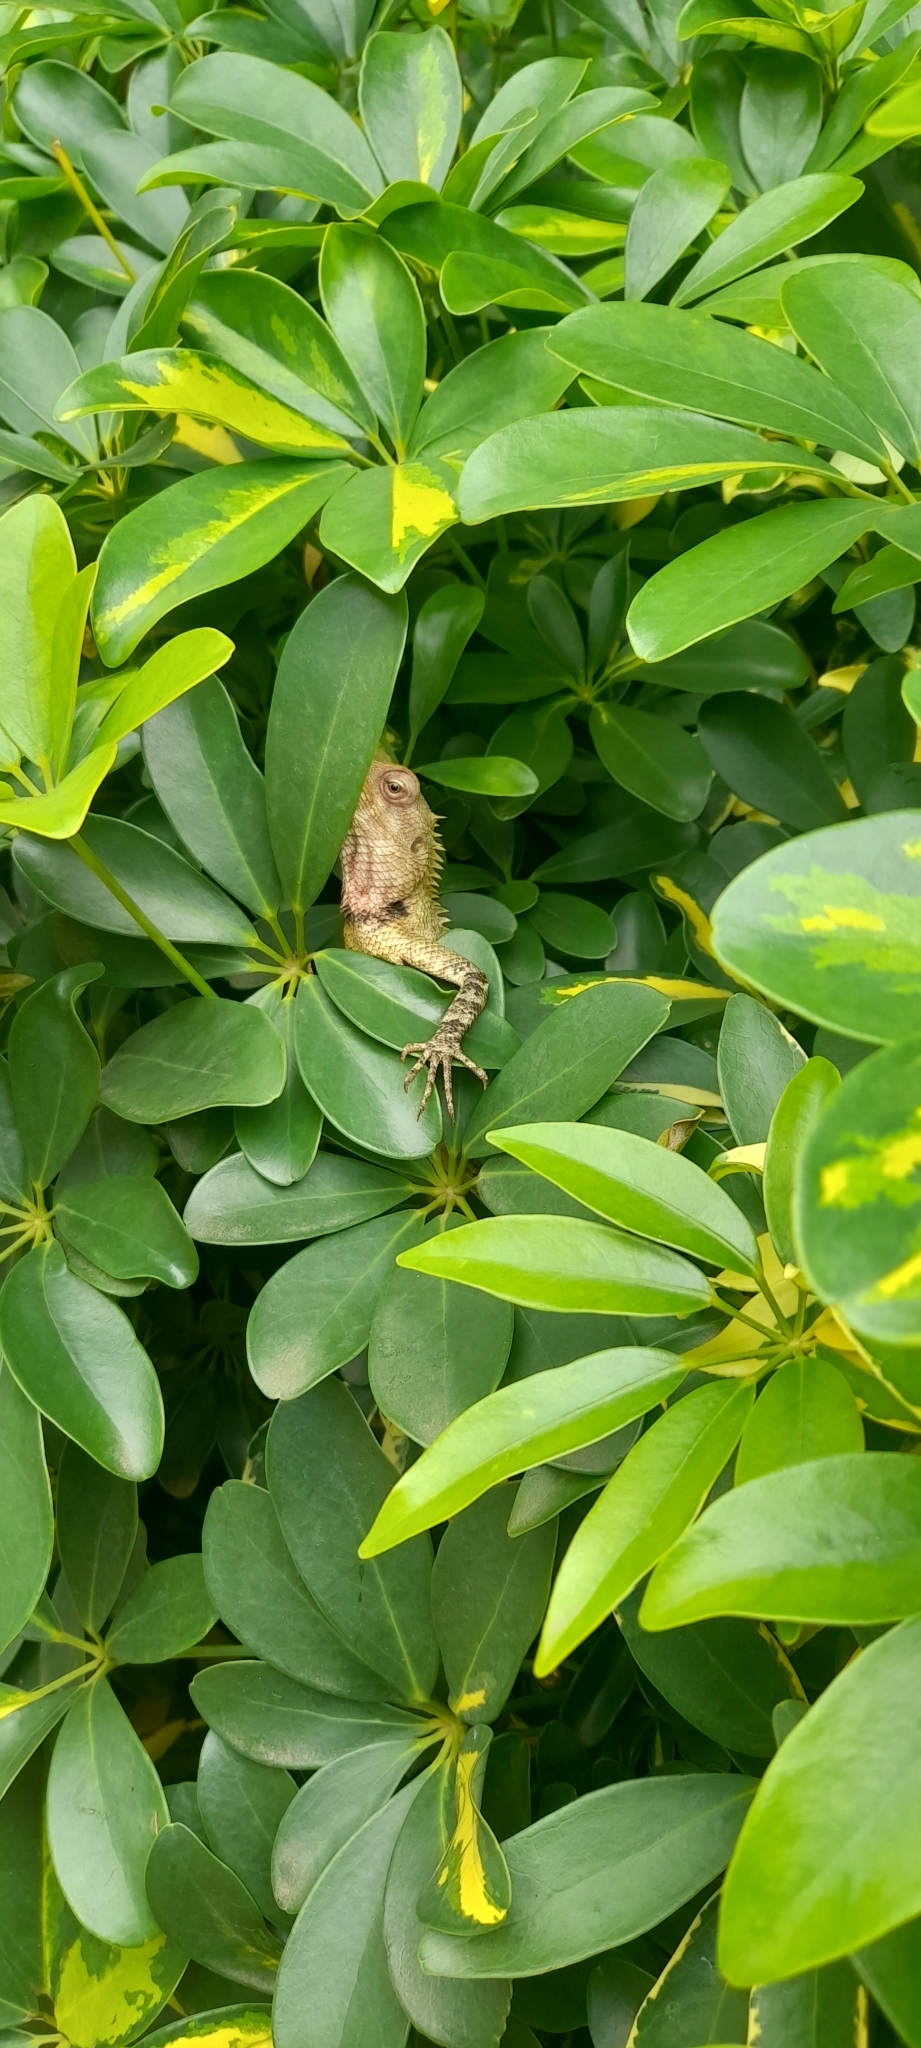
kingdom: Animalia
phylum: Chordata
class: Squamata
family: Agamidae
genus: Calotes
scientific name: Calotes versicolor
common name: Oriental garden lizard
